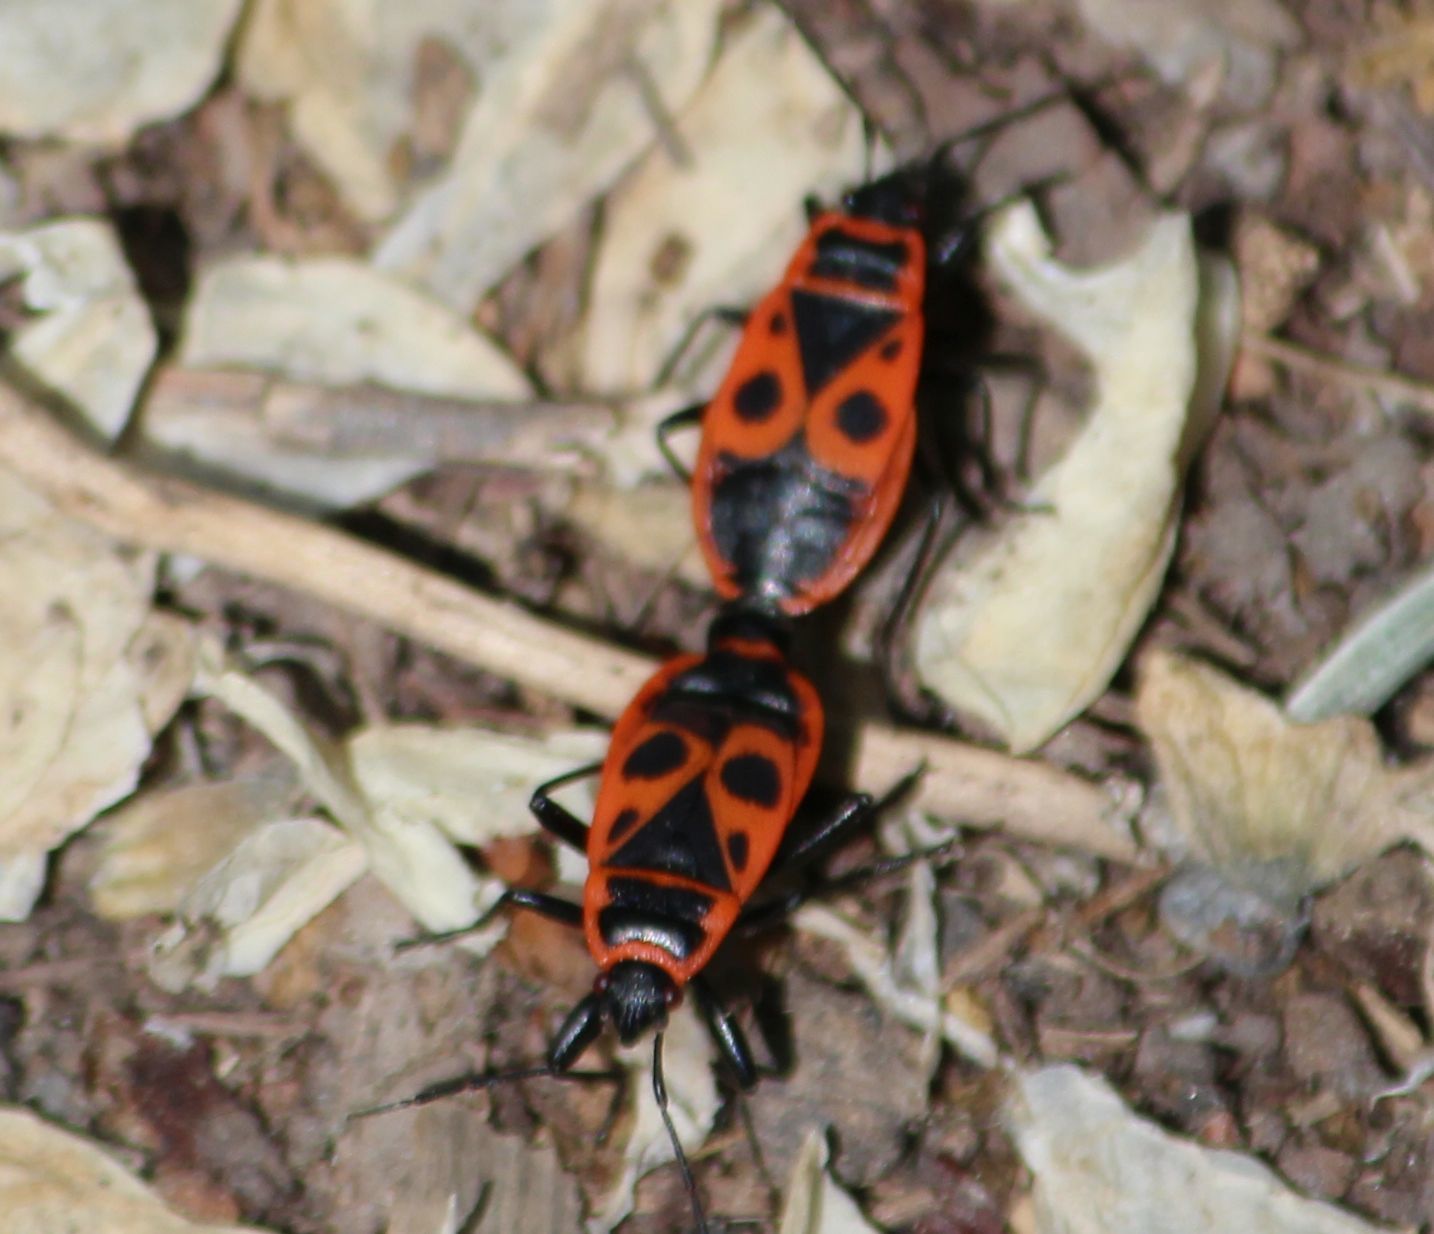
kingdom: Animalia
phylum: Arthropoda
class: Insecta
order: Hemiptera
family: Pyrrhocoridae
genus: Pyrrhocoris
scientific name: Pyrrhocoris apterus
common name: Firebug
